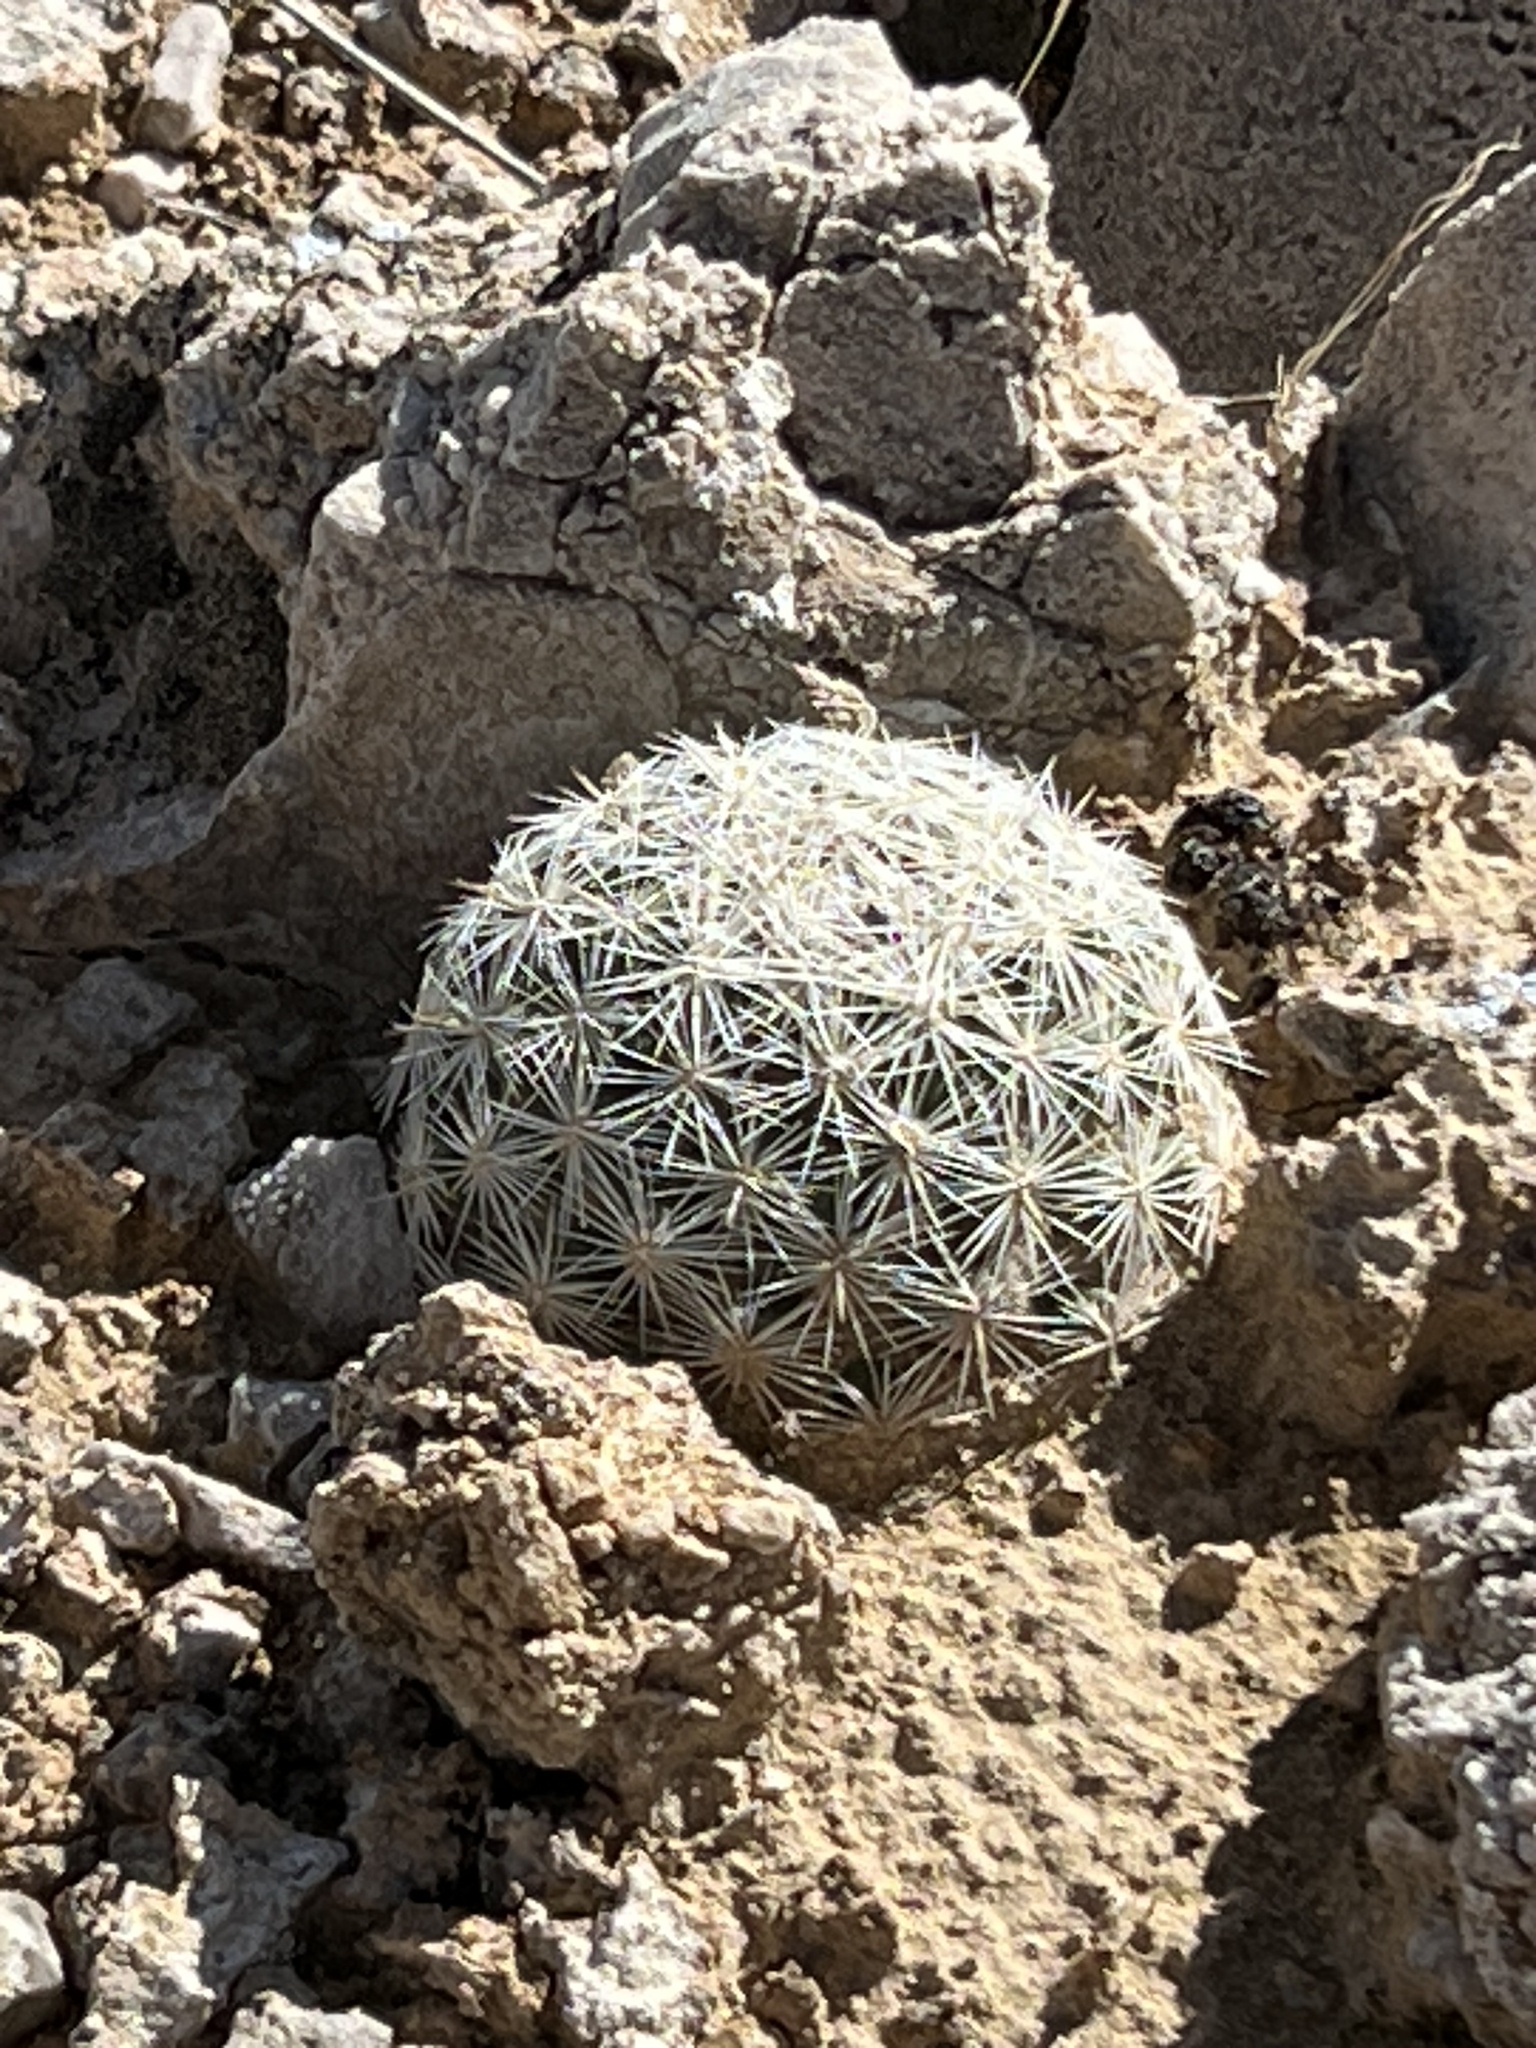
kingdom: Plantae
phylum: Tracheophyta
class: Magnoliopsida
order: Caryophyllales
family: Cactaceae
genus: Pelecyphora
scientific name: Pelecyphora dasyacantha
